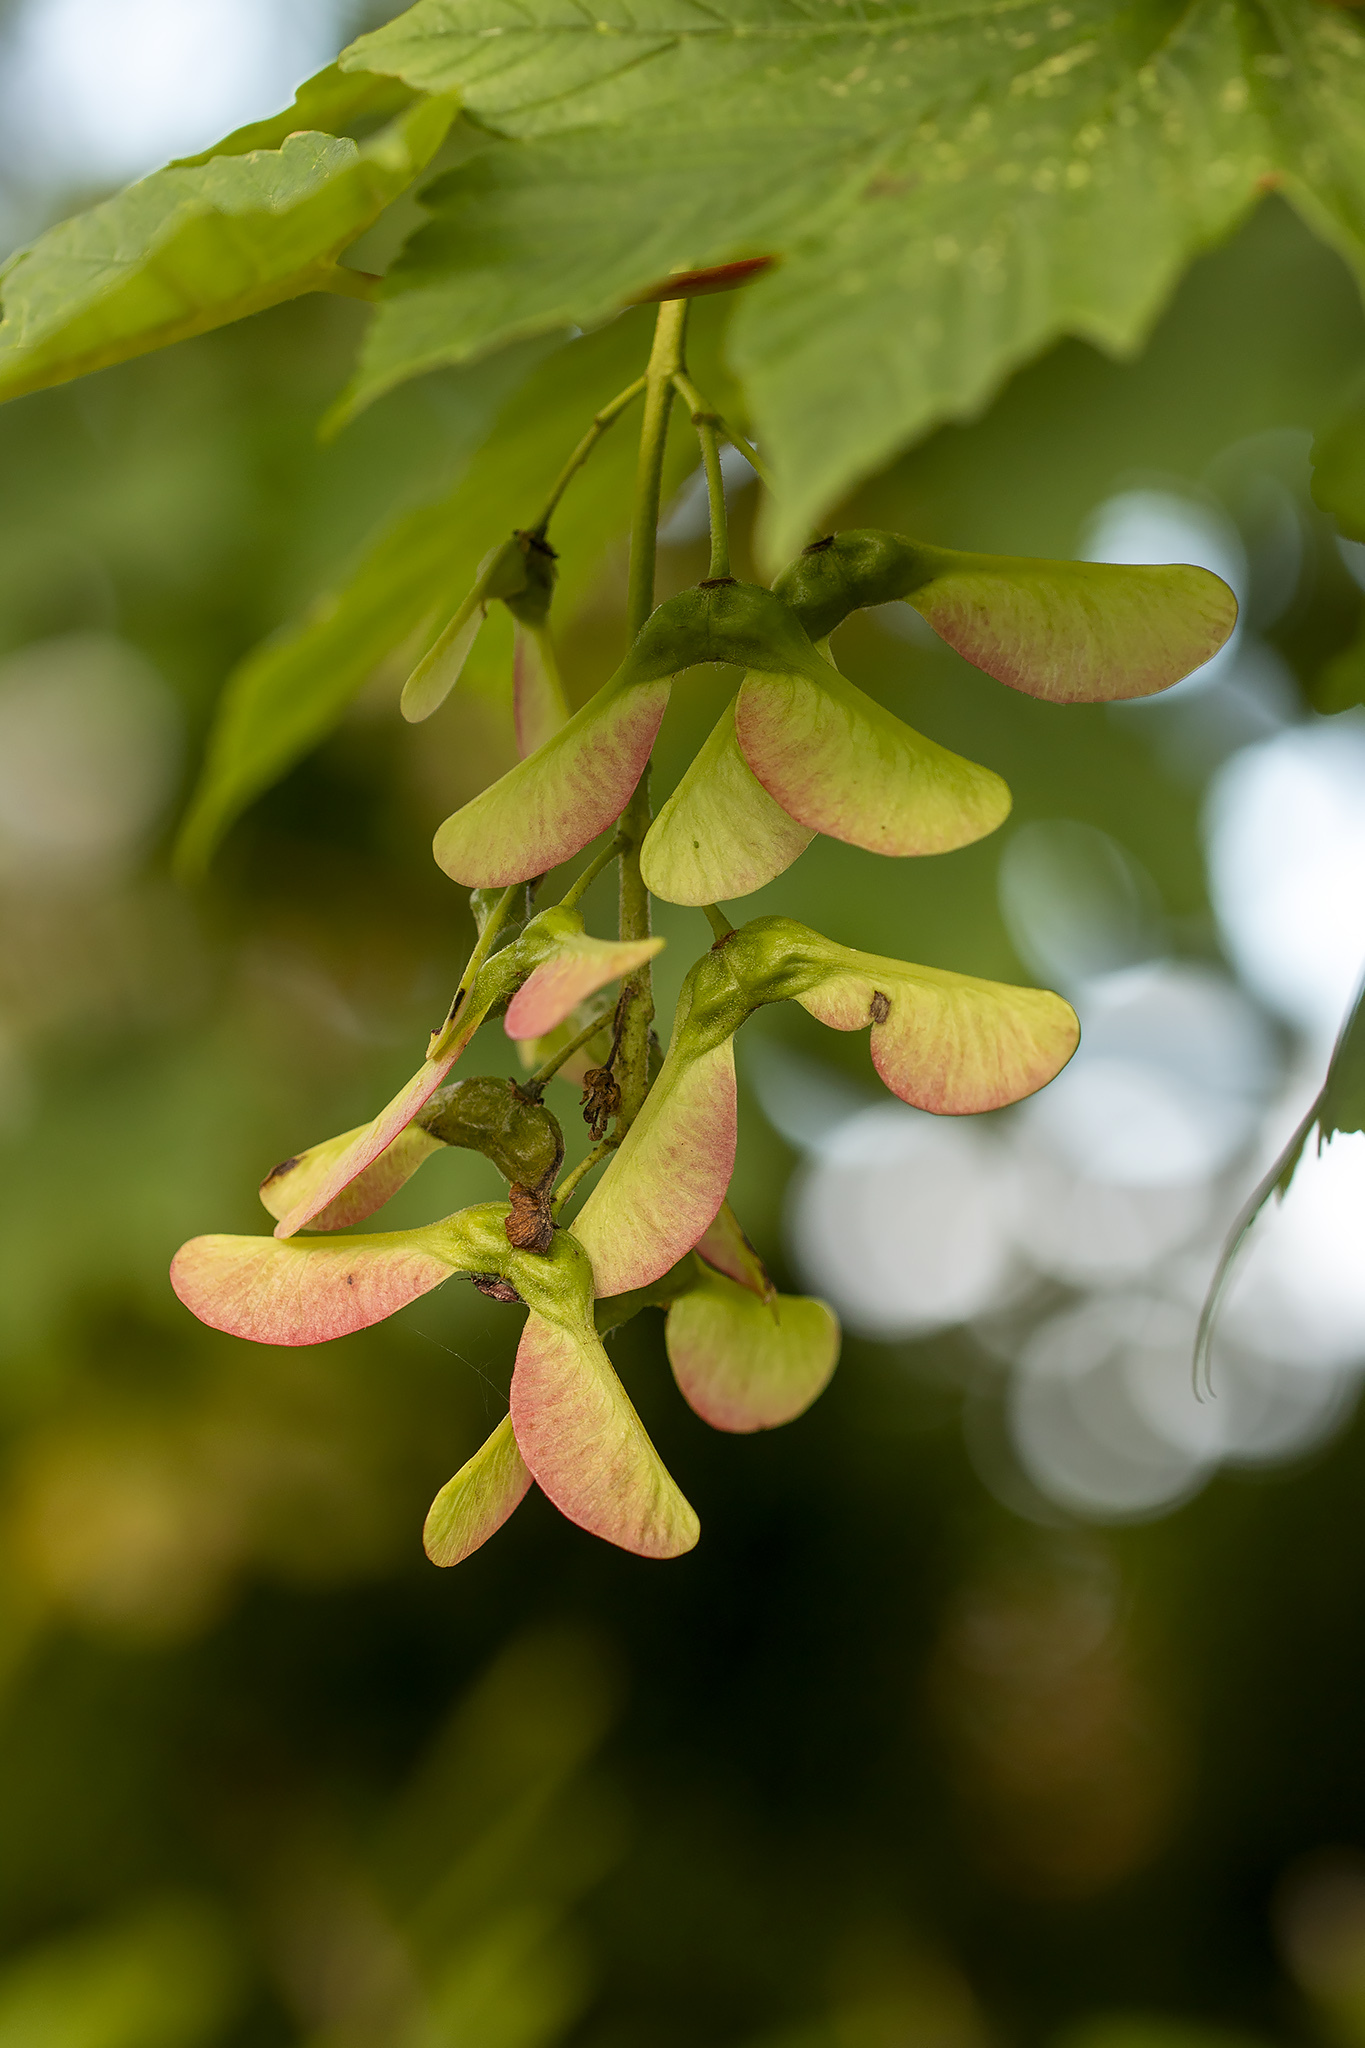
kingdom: Plantae
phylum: Tracheophyta
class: Magnoliopsida
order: Sapindales
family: Sapindaceae
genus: Acer
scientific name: Acer pseudoplatanus
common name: Sycamore
